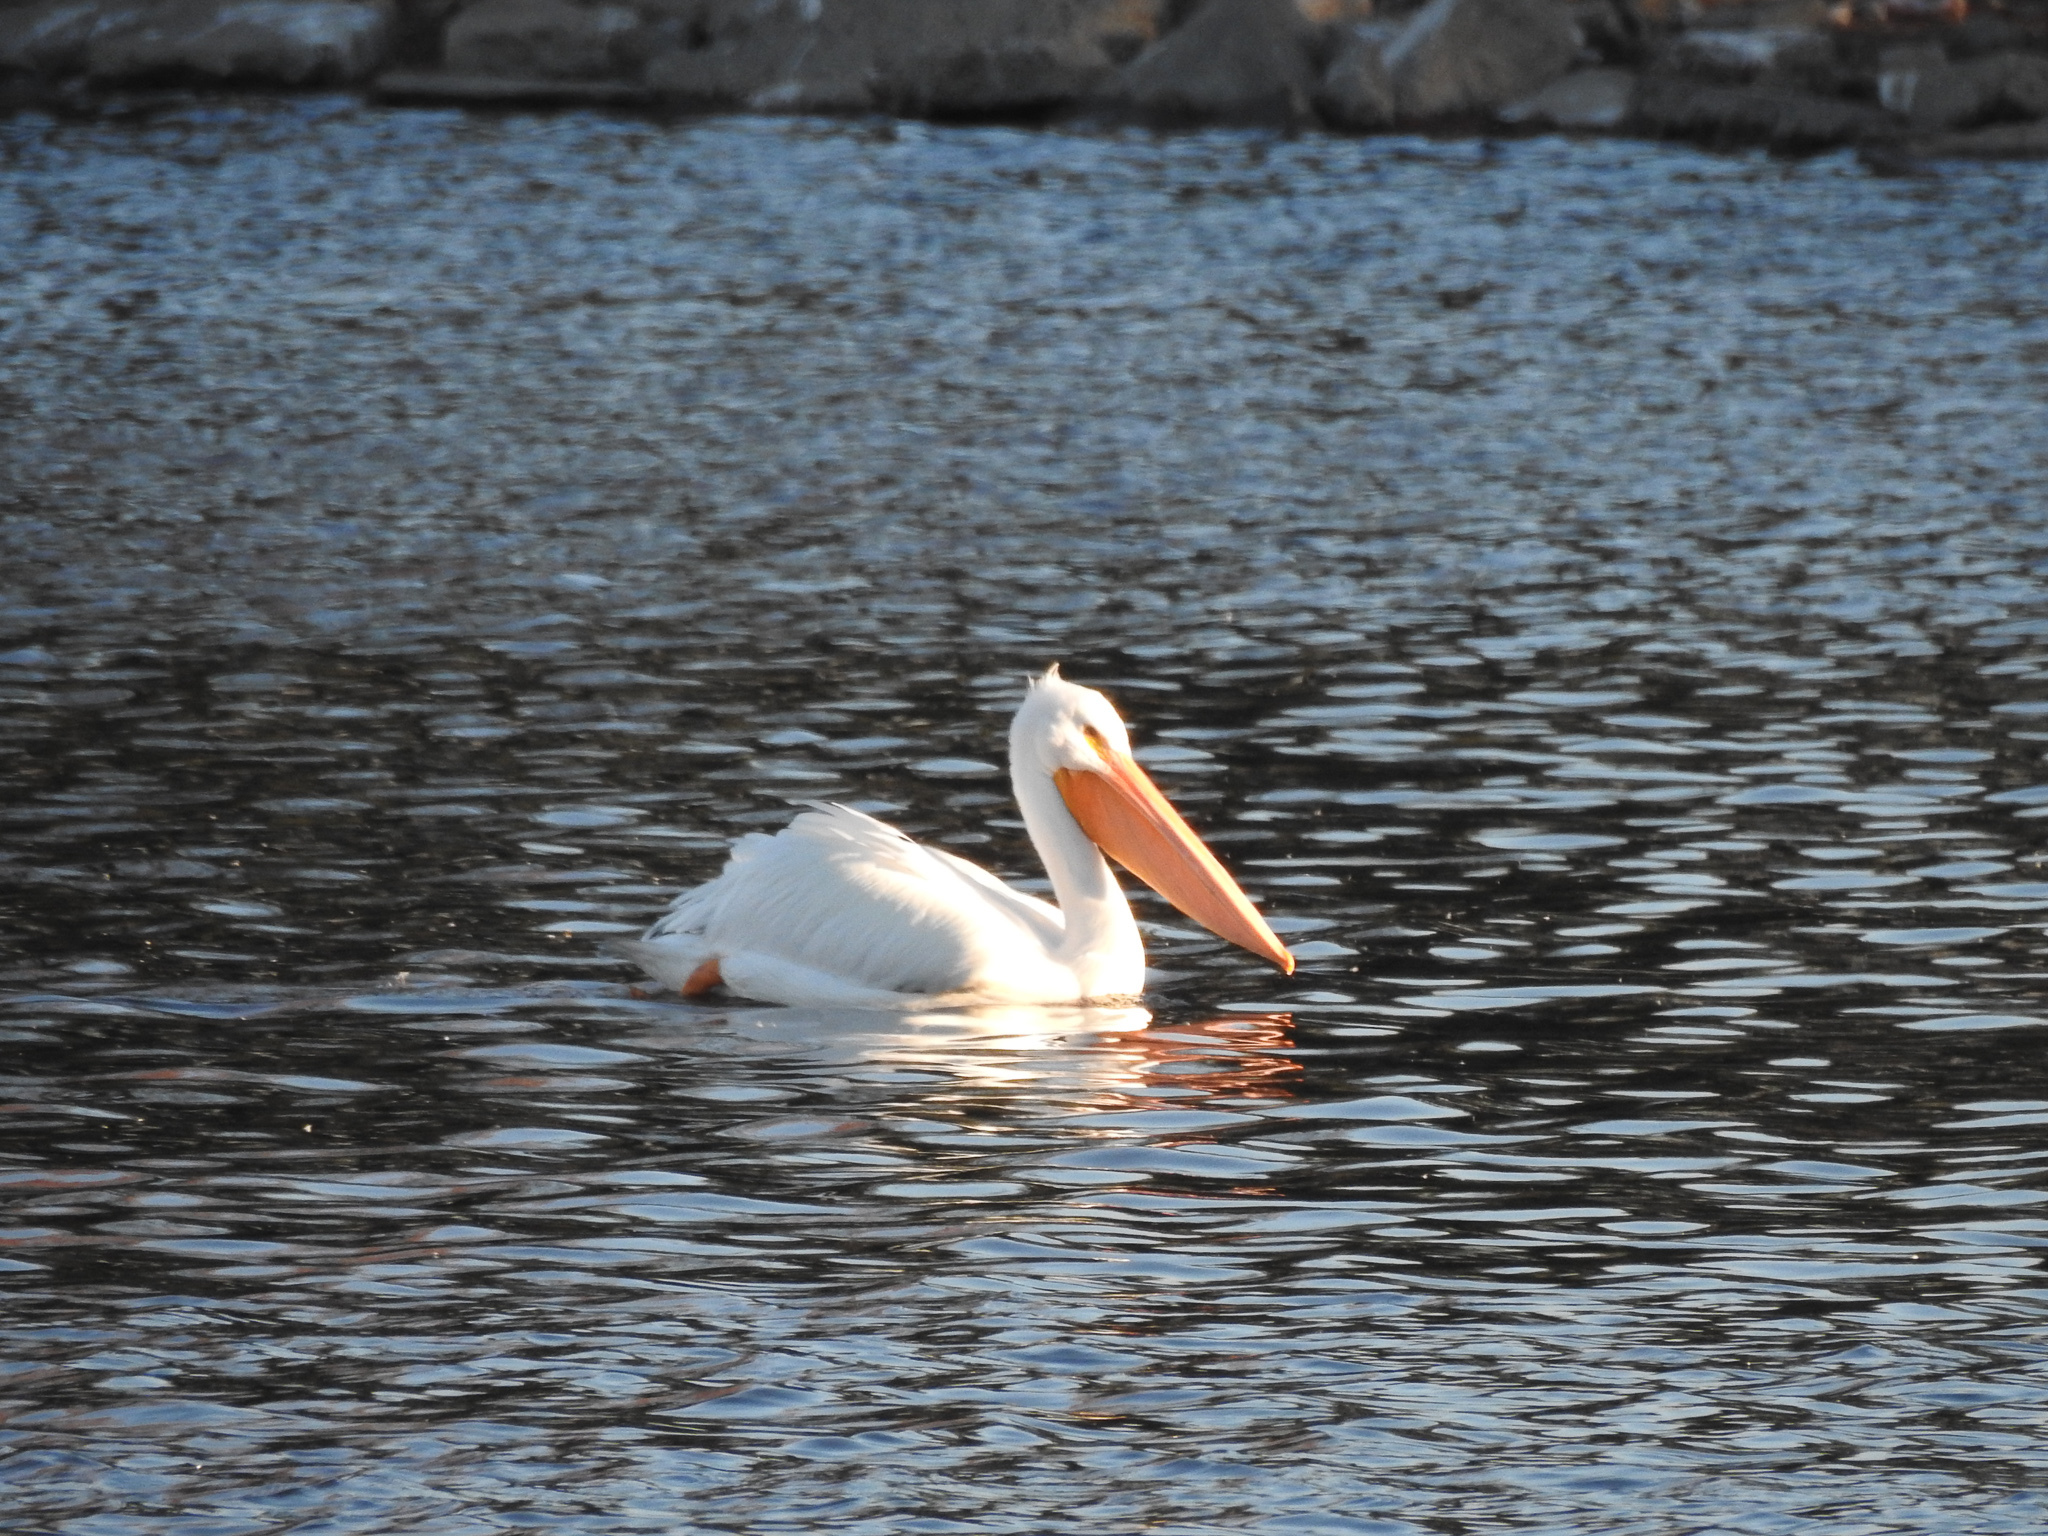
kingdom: Animalia
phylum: Chordata
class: Aves
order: Pelecaniformes
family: Pelecanidae
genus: Pelecanus
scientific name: Pelecanus erythrorhynchos
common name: American white pelican
